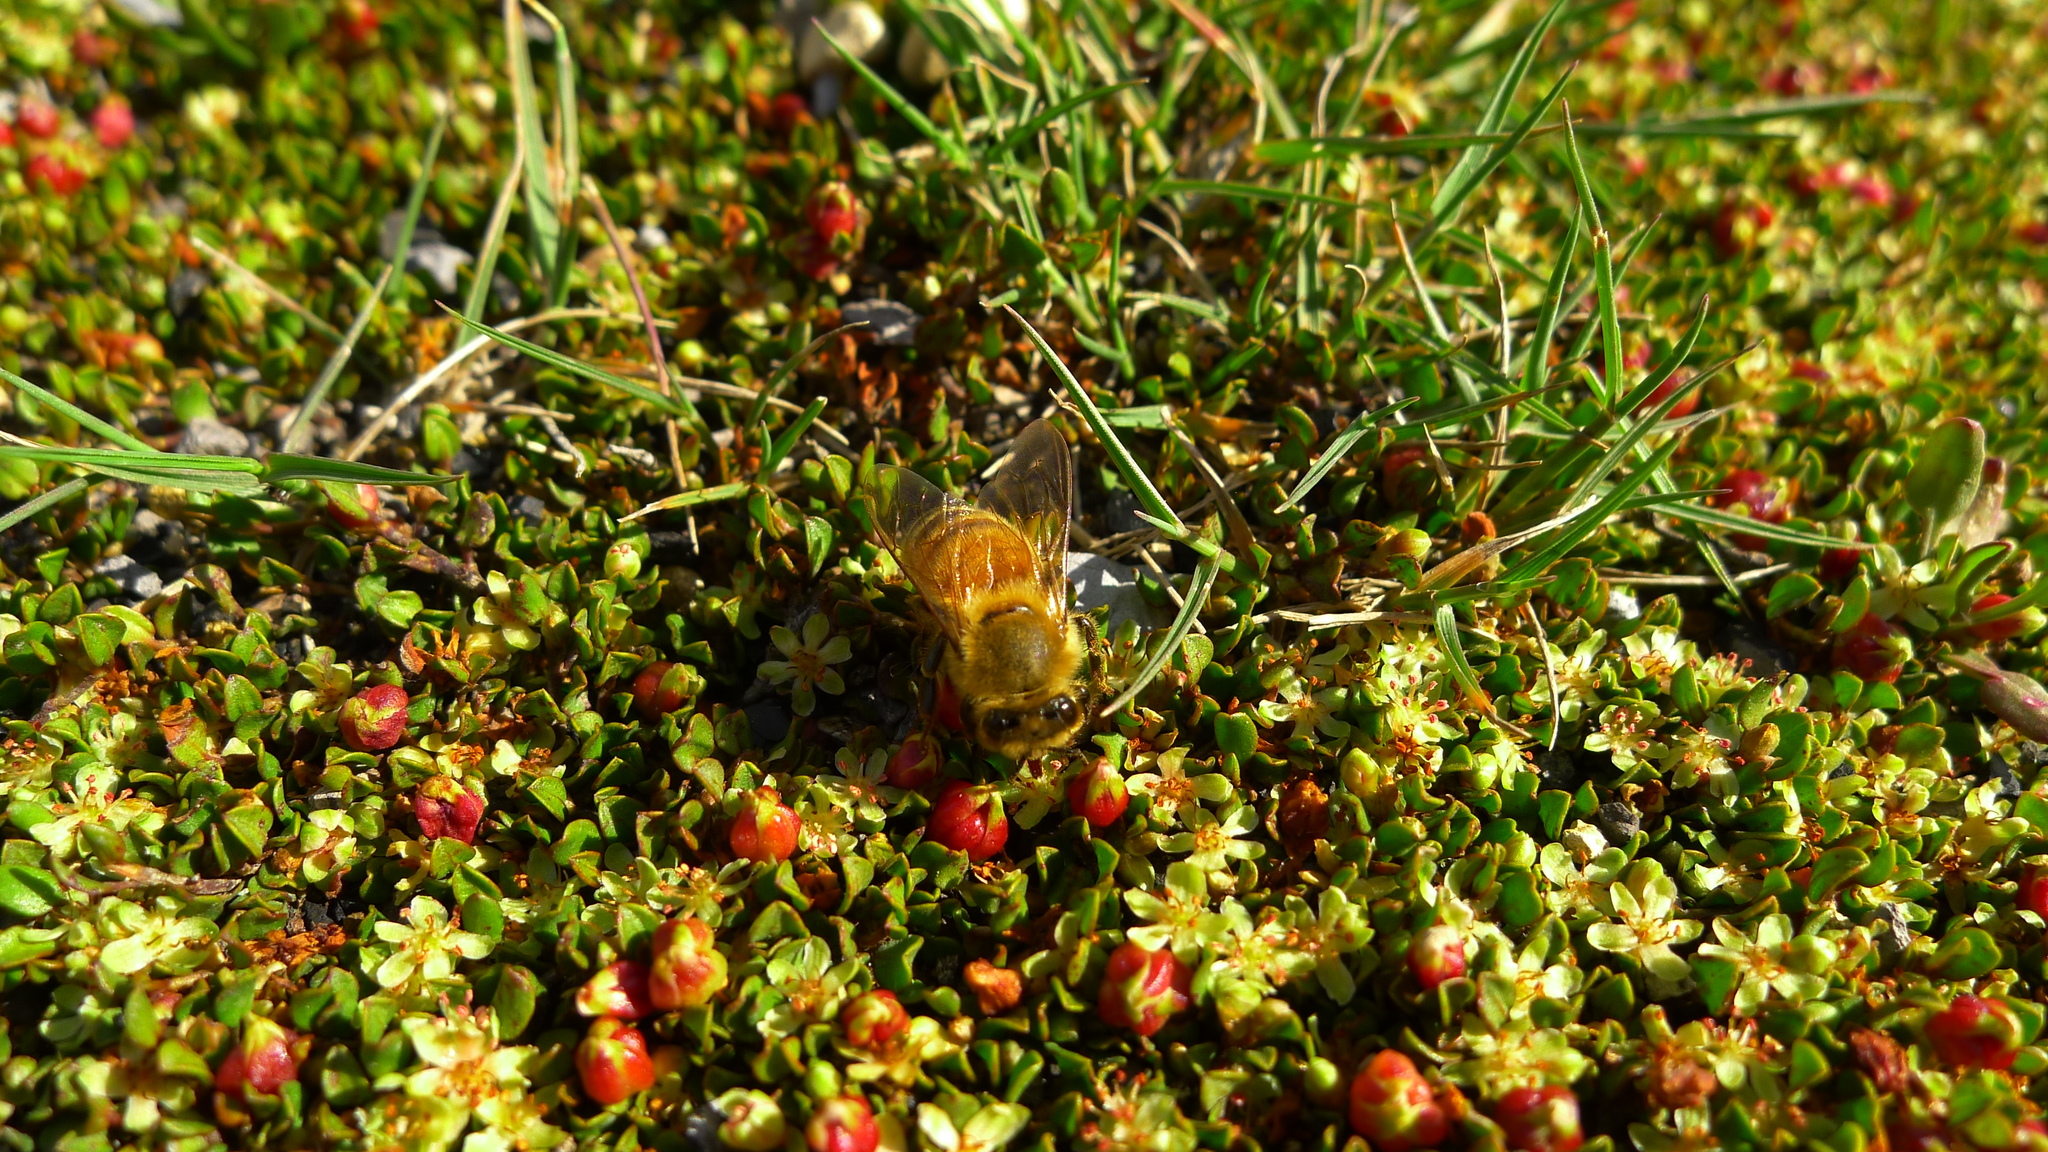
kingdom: Plantae
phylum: Tracheophyta
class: Magnoliopsida
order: Caryophyllales
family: Polygonaceae
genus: Muehlenbeckia
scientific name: Muehlenbeckia axillaris
